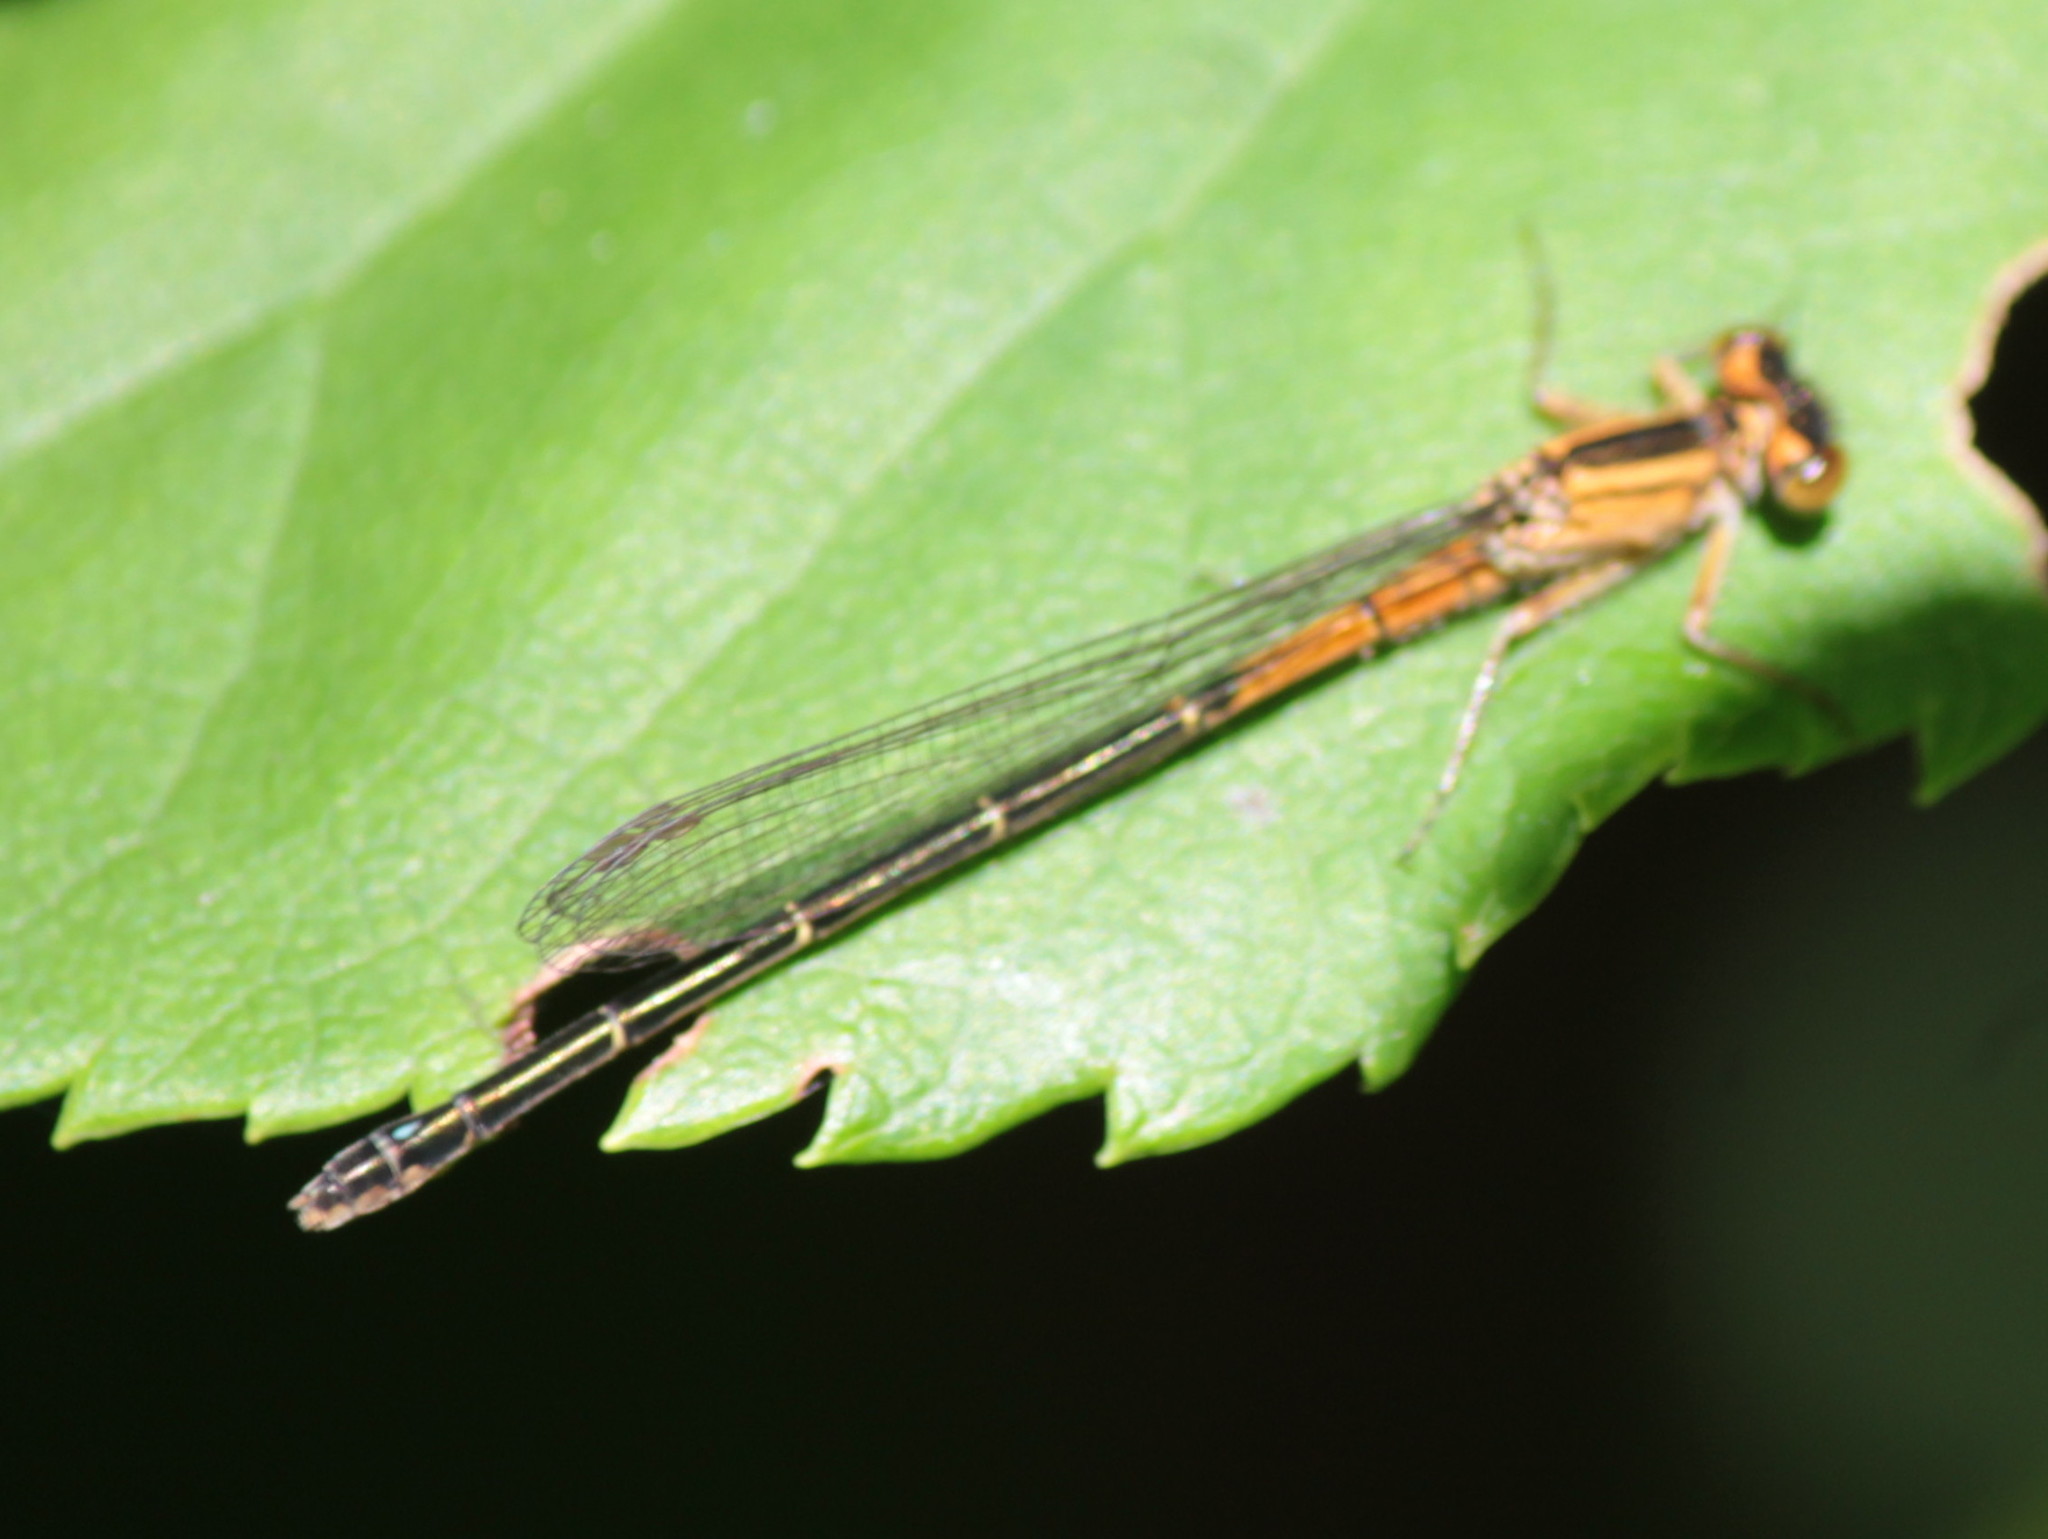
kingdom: Animalia
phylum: Arthropoda
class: Insecta
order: Odonata
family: Coenagrionidae
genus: Ischnura
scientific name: Ischnura verticalis
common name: Eastern forktail
